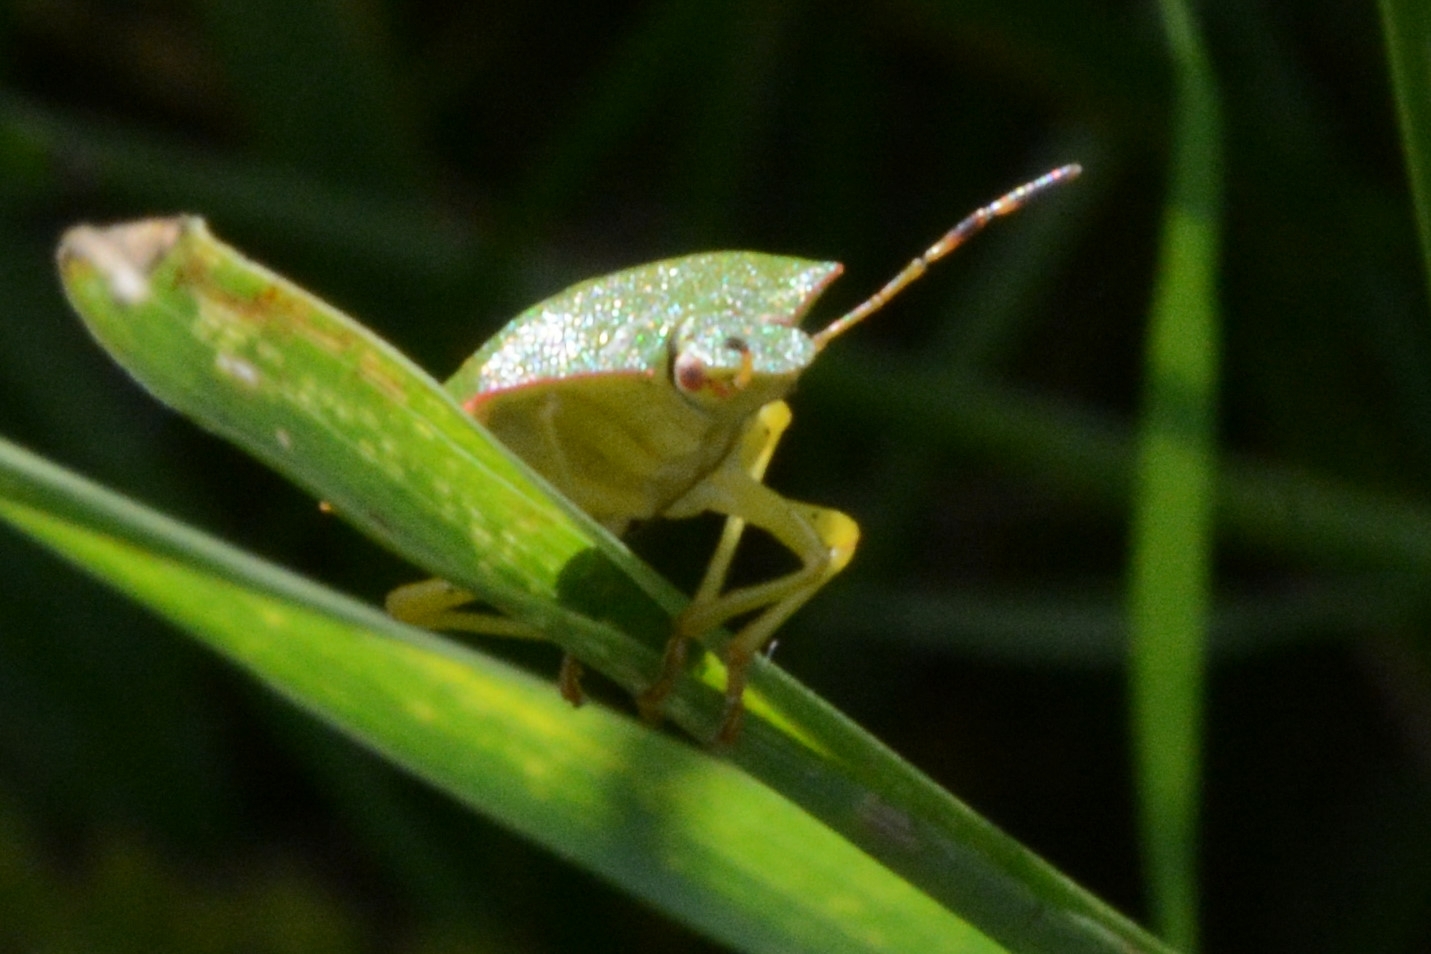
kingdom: Animalia
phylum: Arthropoda
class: Insecta
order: Hemiptera
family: Pentatomidae
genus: Palomena
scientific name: Palomena prasina
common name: Green shieldbug
